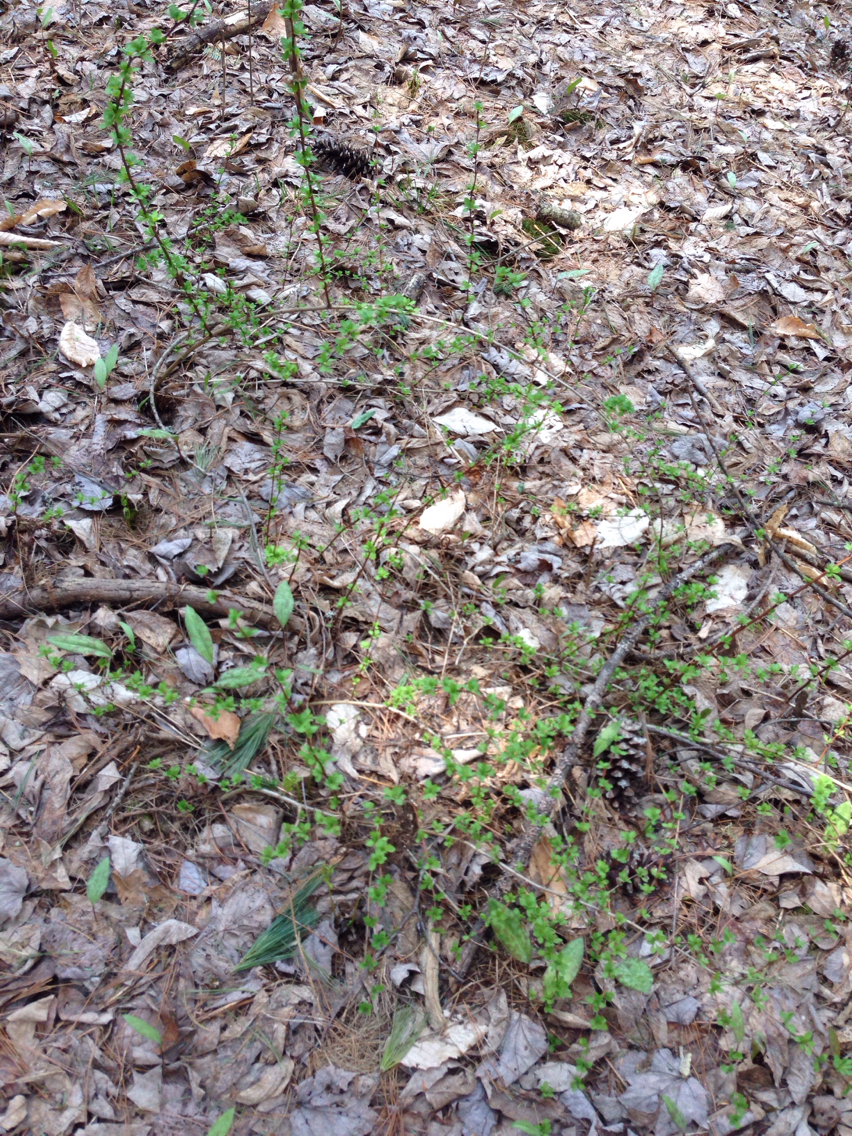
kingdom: Plantae
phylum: Tracheophyta
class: Magnoliopsida
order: Ranunculales
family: Berberidaceae
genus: Berberis
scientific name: Berberis thunbergii
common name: Japanese barberry
